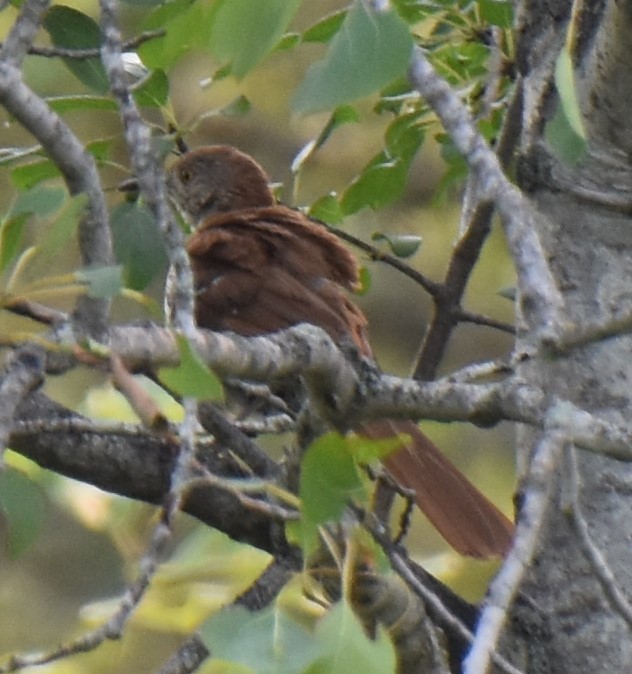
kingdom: Animalia
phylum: Chordata
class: Aves
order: Passeriformes
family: Mimidae
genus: Toxostoma
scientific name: Toxostoma rufum
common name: Brown thrasher
